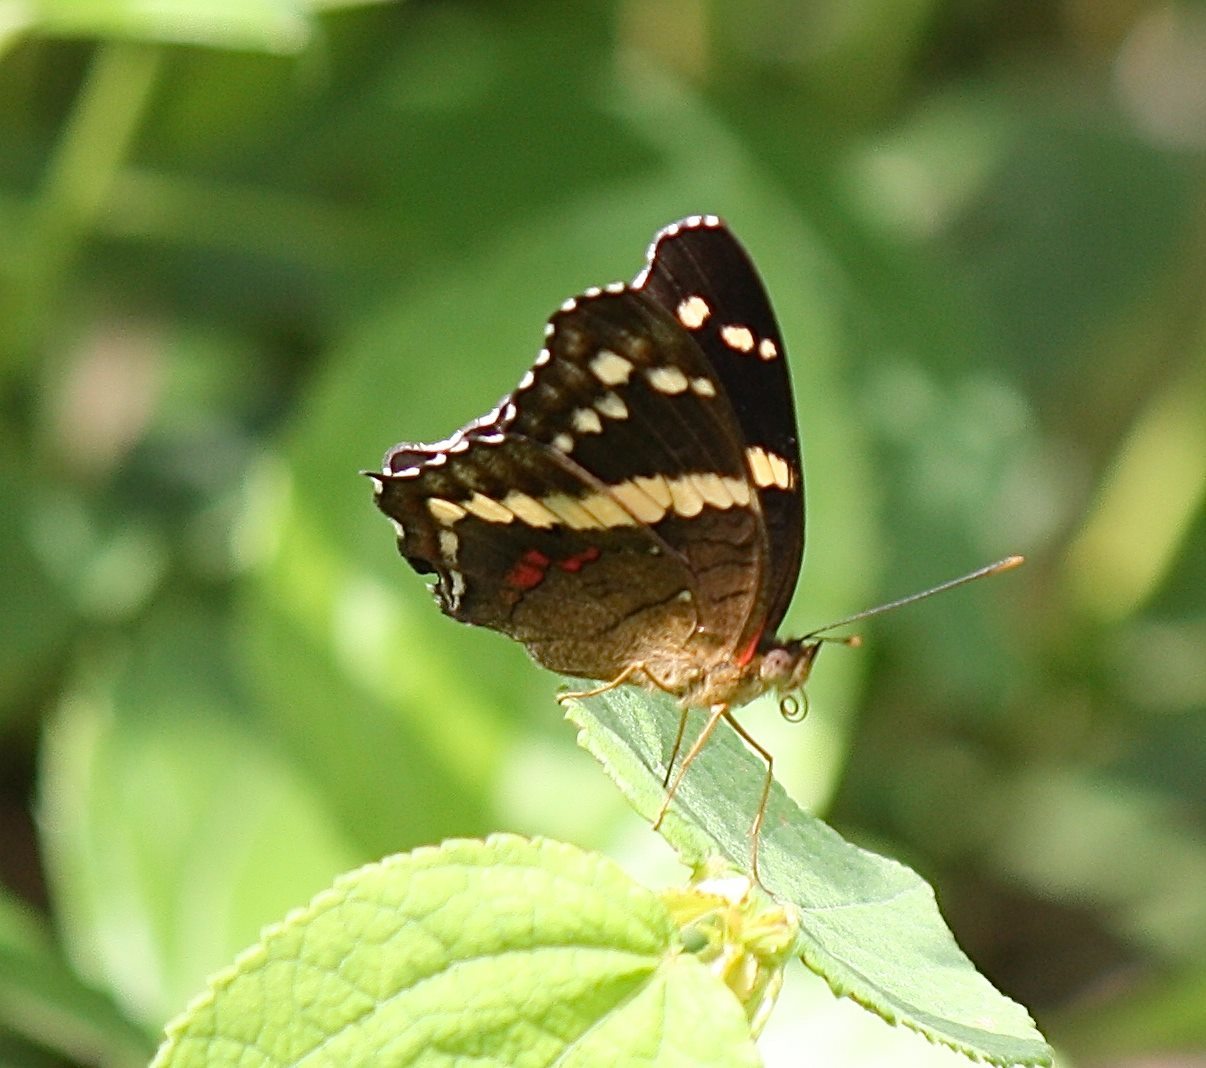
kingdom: Animalia
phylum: Arthropoda
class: Insecta
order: Lepidoptera
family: Nymphalidae
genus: Anartia
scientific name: Anartia fatima
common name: Banded peacock
